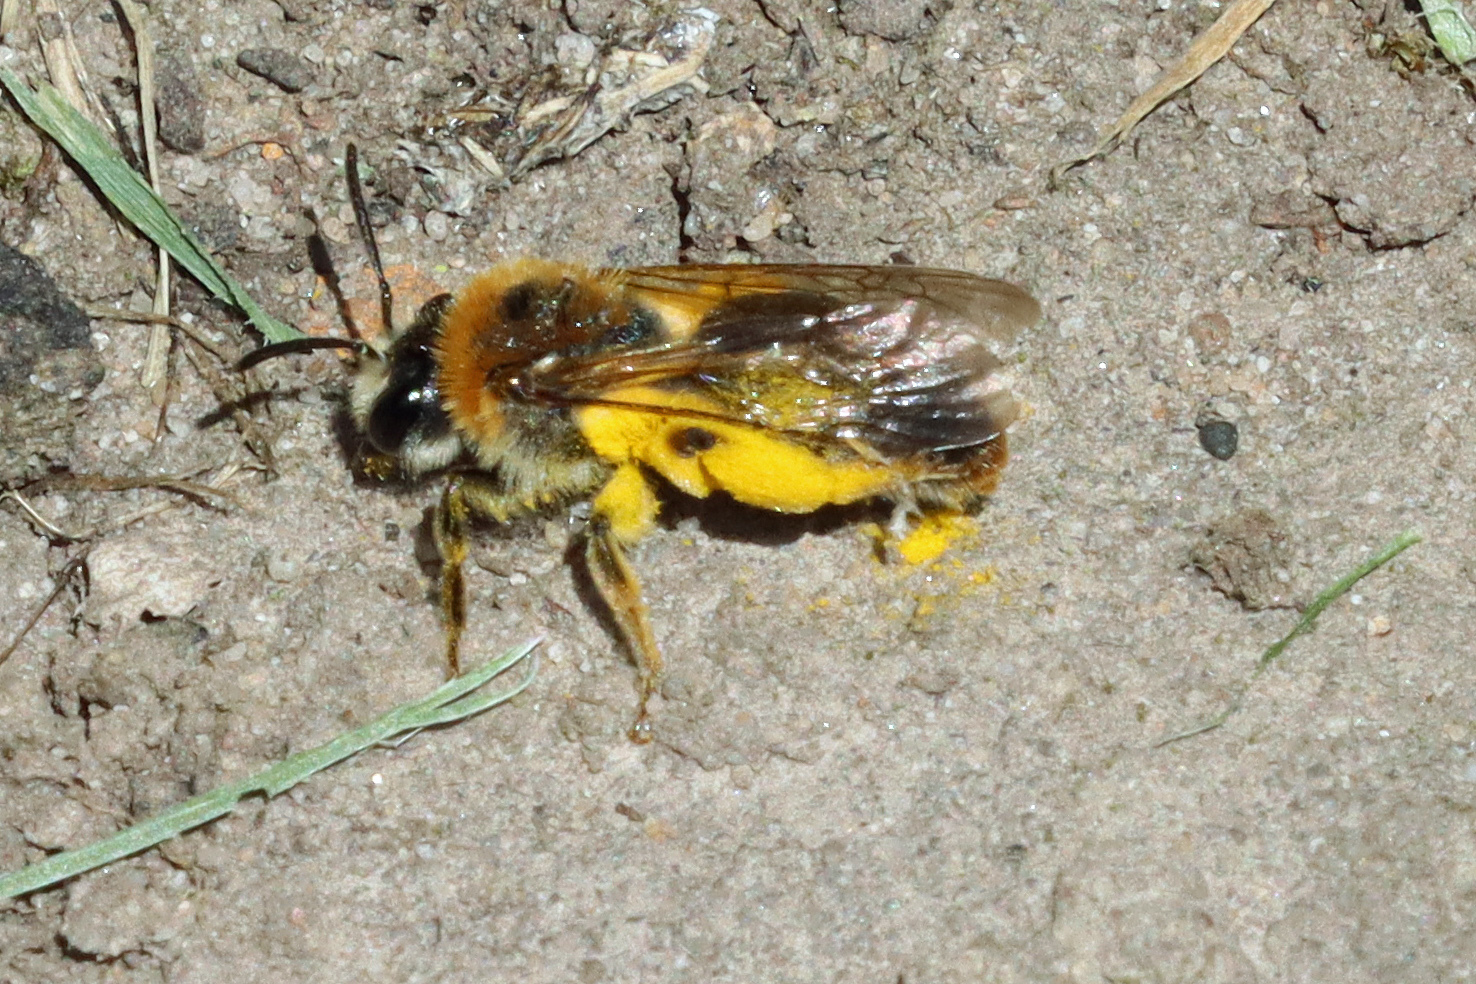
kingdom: Animalia
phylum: Arthropoda
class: Insecta
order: Hymenoptera
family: Andrenidae
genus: Andrena
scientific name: Andrena haemorrhoa
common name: Early mining bee
